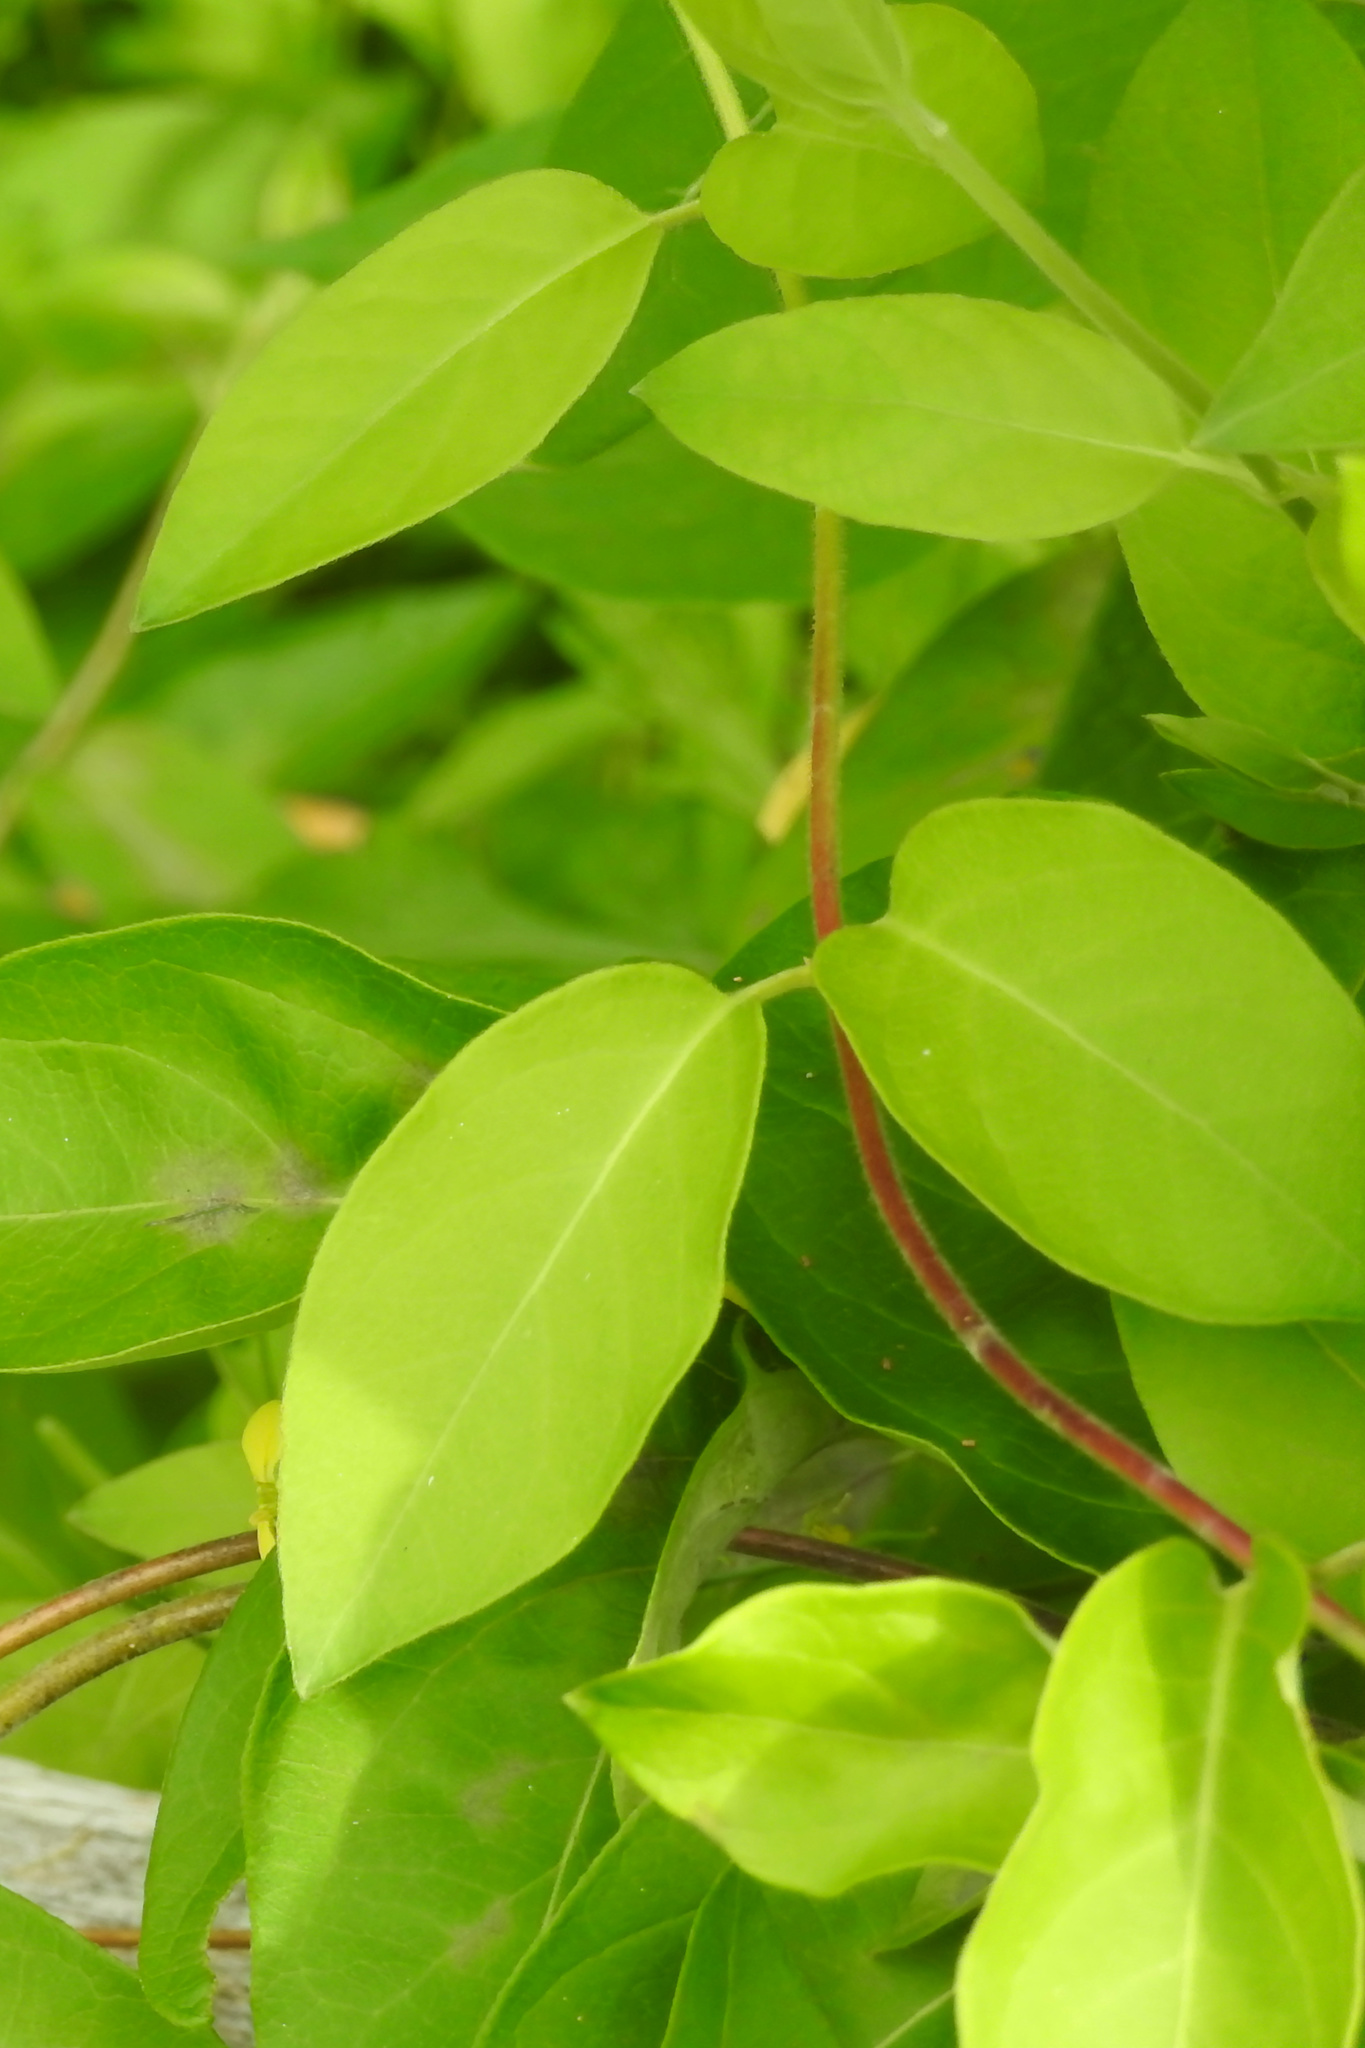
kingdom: Plantae
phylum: Tracheophyta
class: Magnoliopsida
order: Dipsacales
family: Caprifoliaceae
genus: Lonicera
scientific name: Lonicera japonica
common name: Japanese honeysuckle
